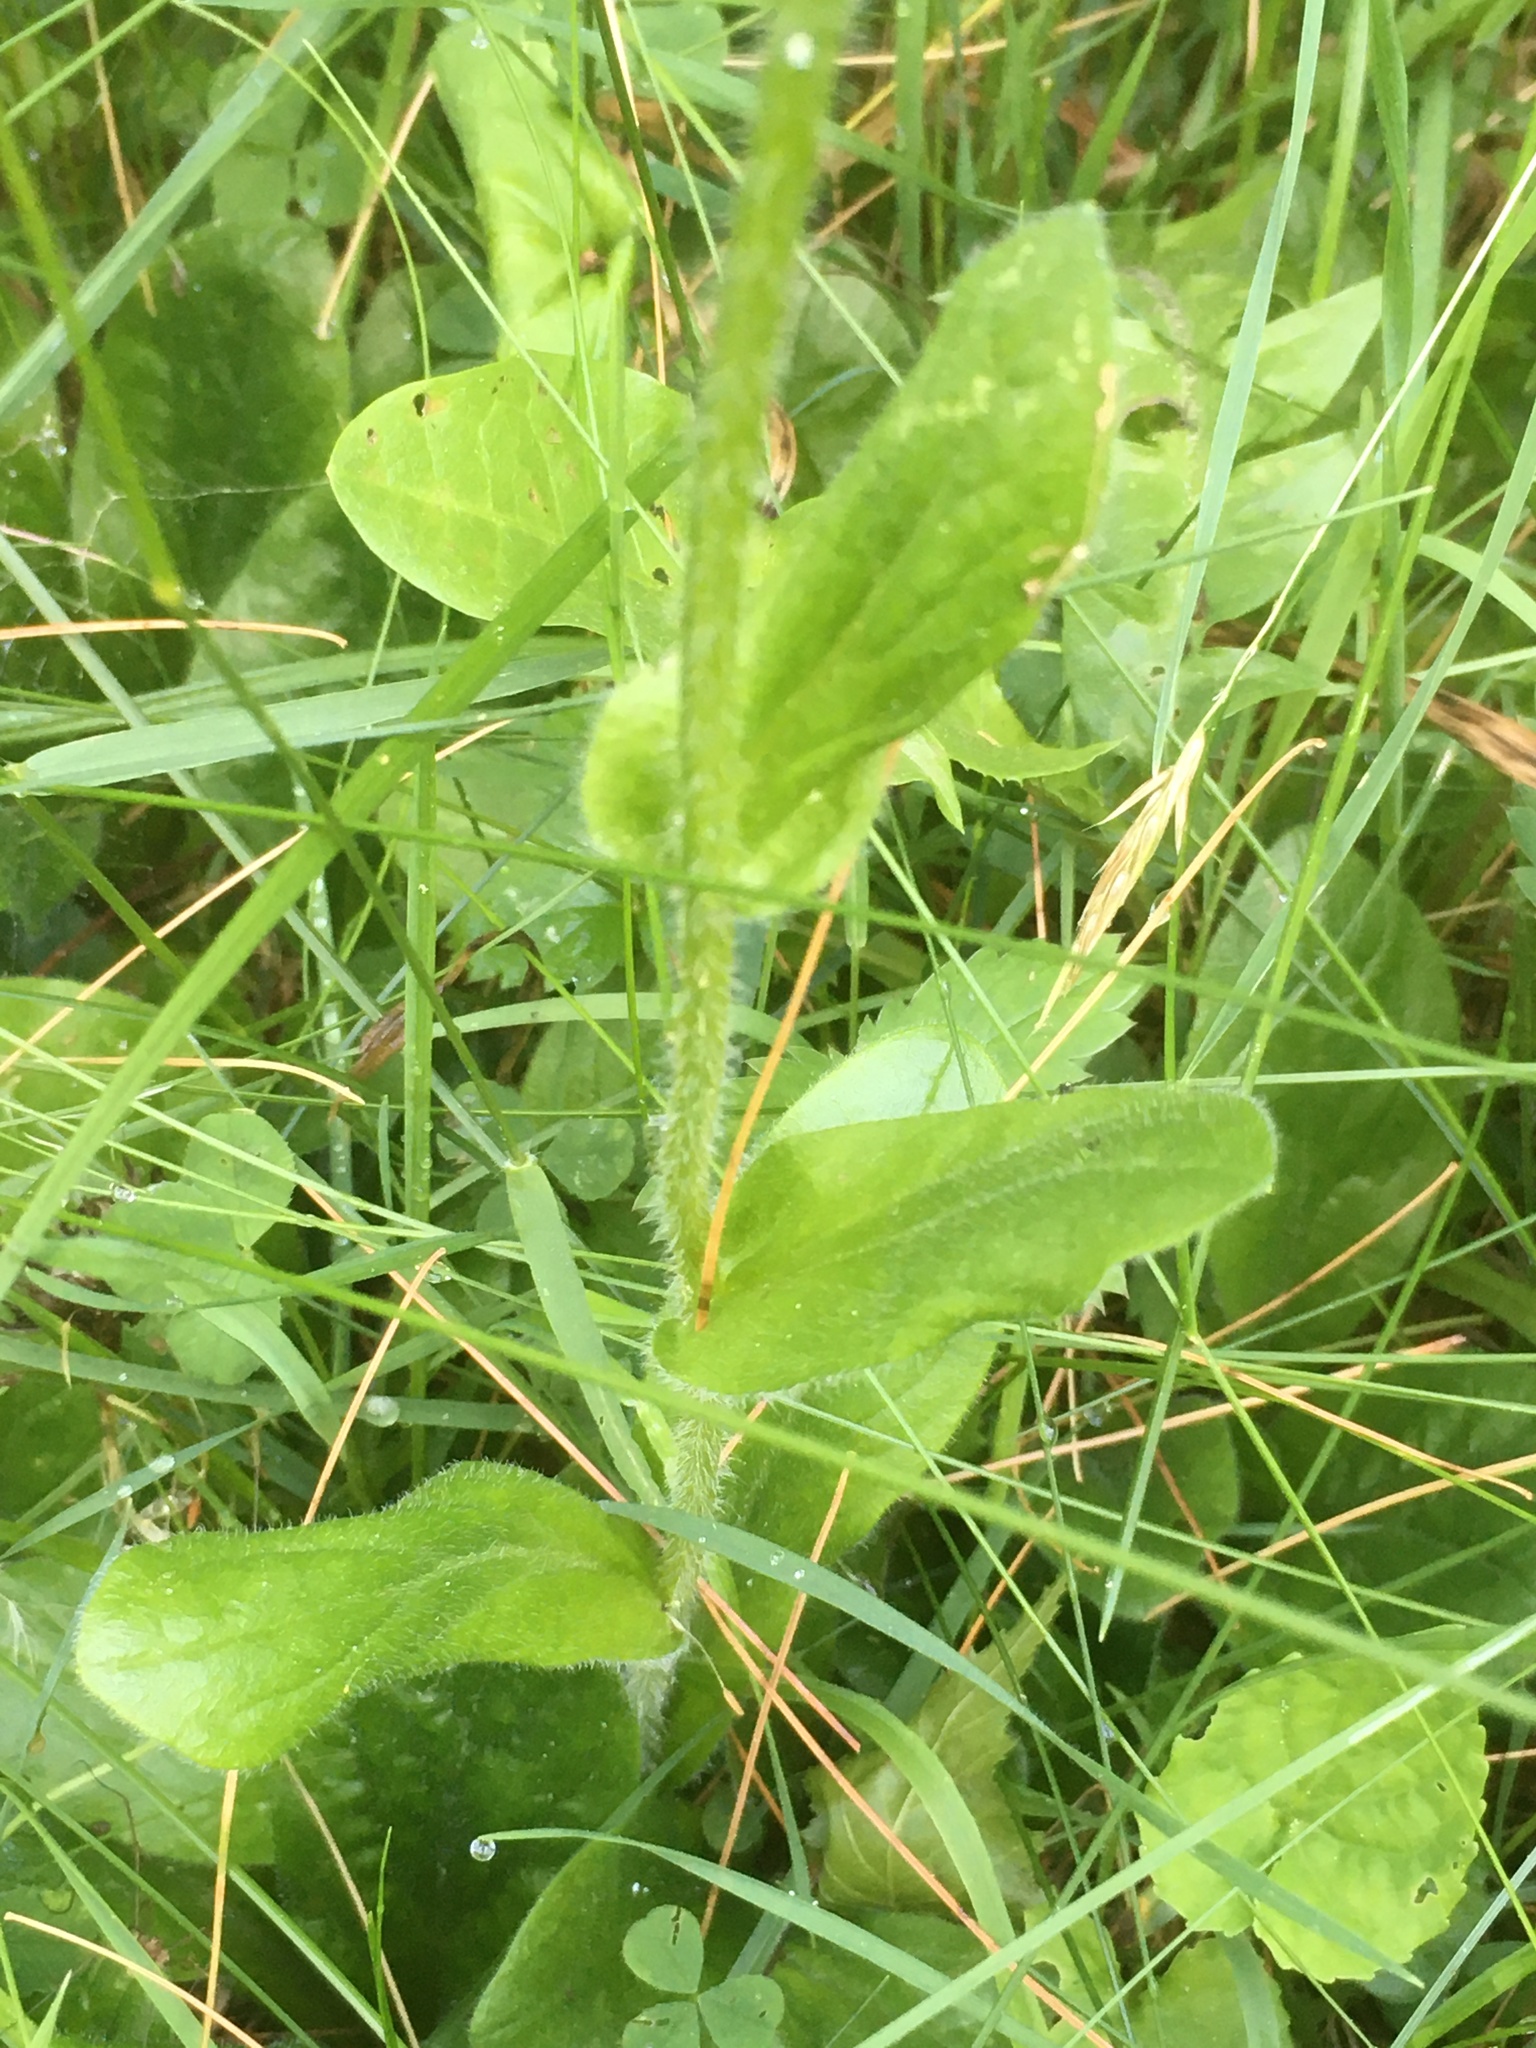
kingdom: Plantae
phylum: Tracheophyta
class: Magnoliopsida
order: Asterales
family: Asteraceae
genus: Erigeron
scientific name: Erigeron pulchellus
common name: Hairy fleabane
